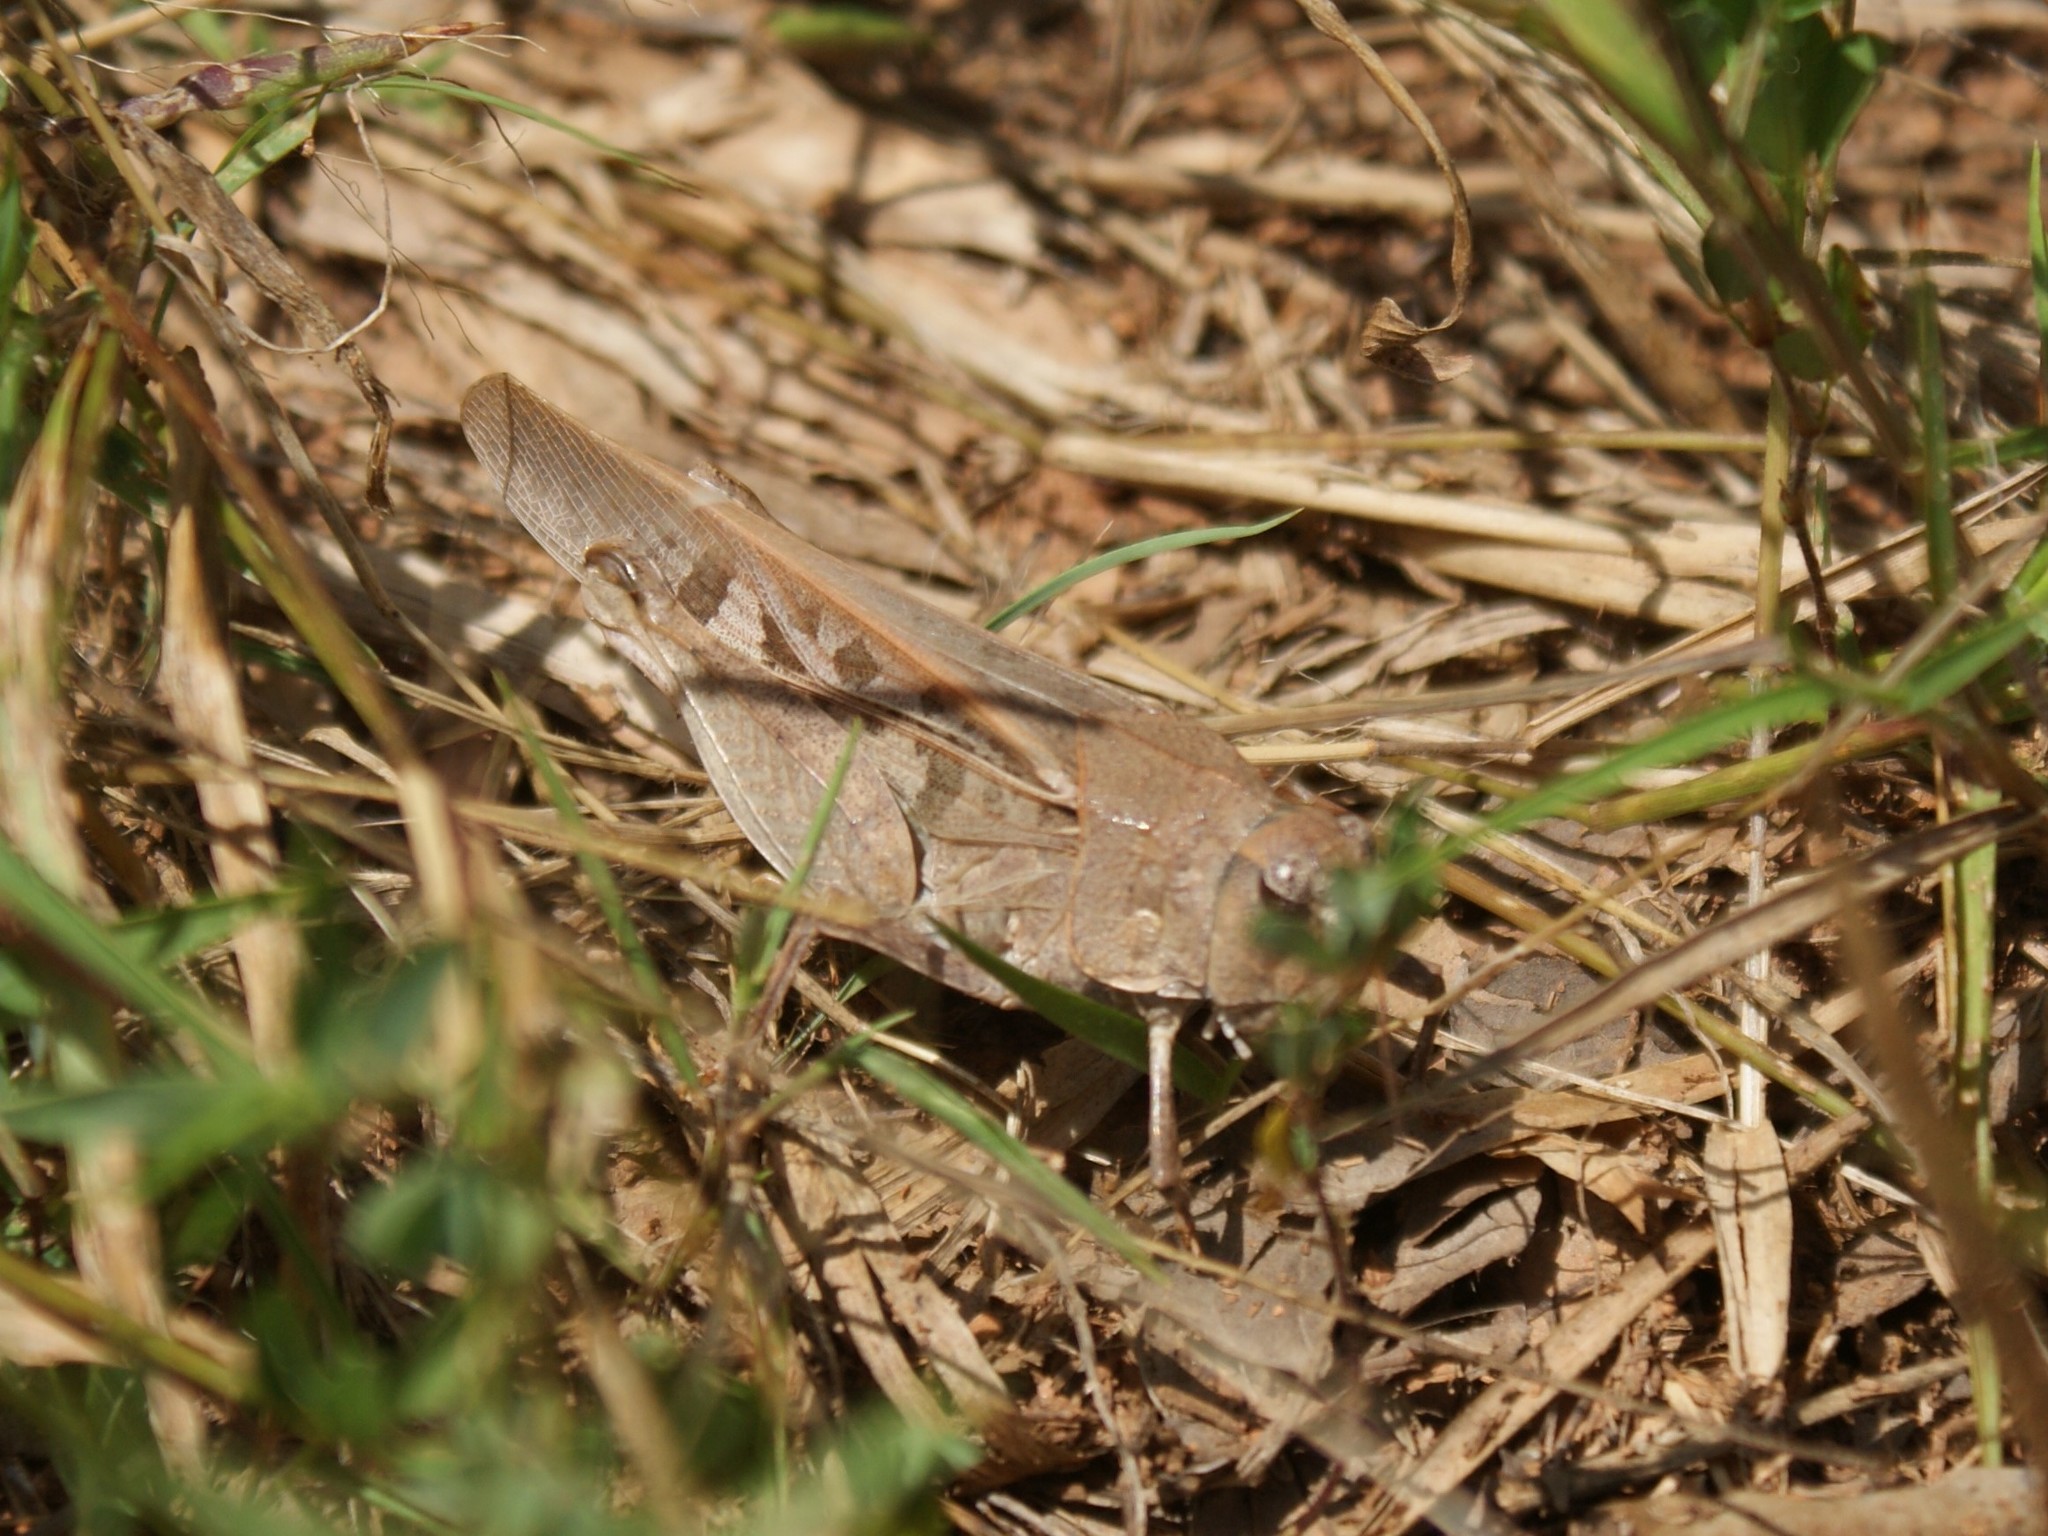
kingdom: Animalia
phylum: Arthropoda
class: Insecta
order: Orthoptera
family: Acrididae
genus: Pardalophora
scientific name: Pardalophora phoenicoptera
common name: Orange-winged grasshopper
